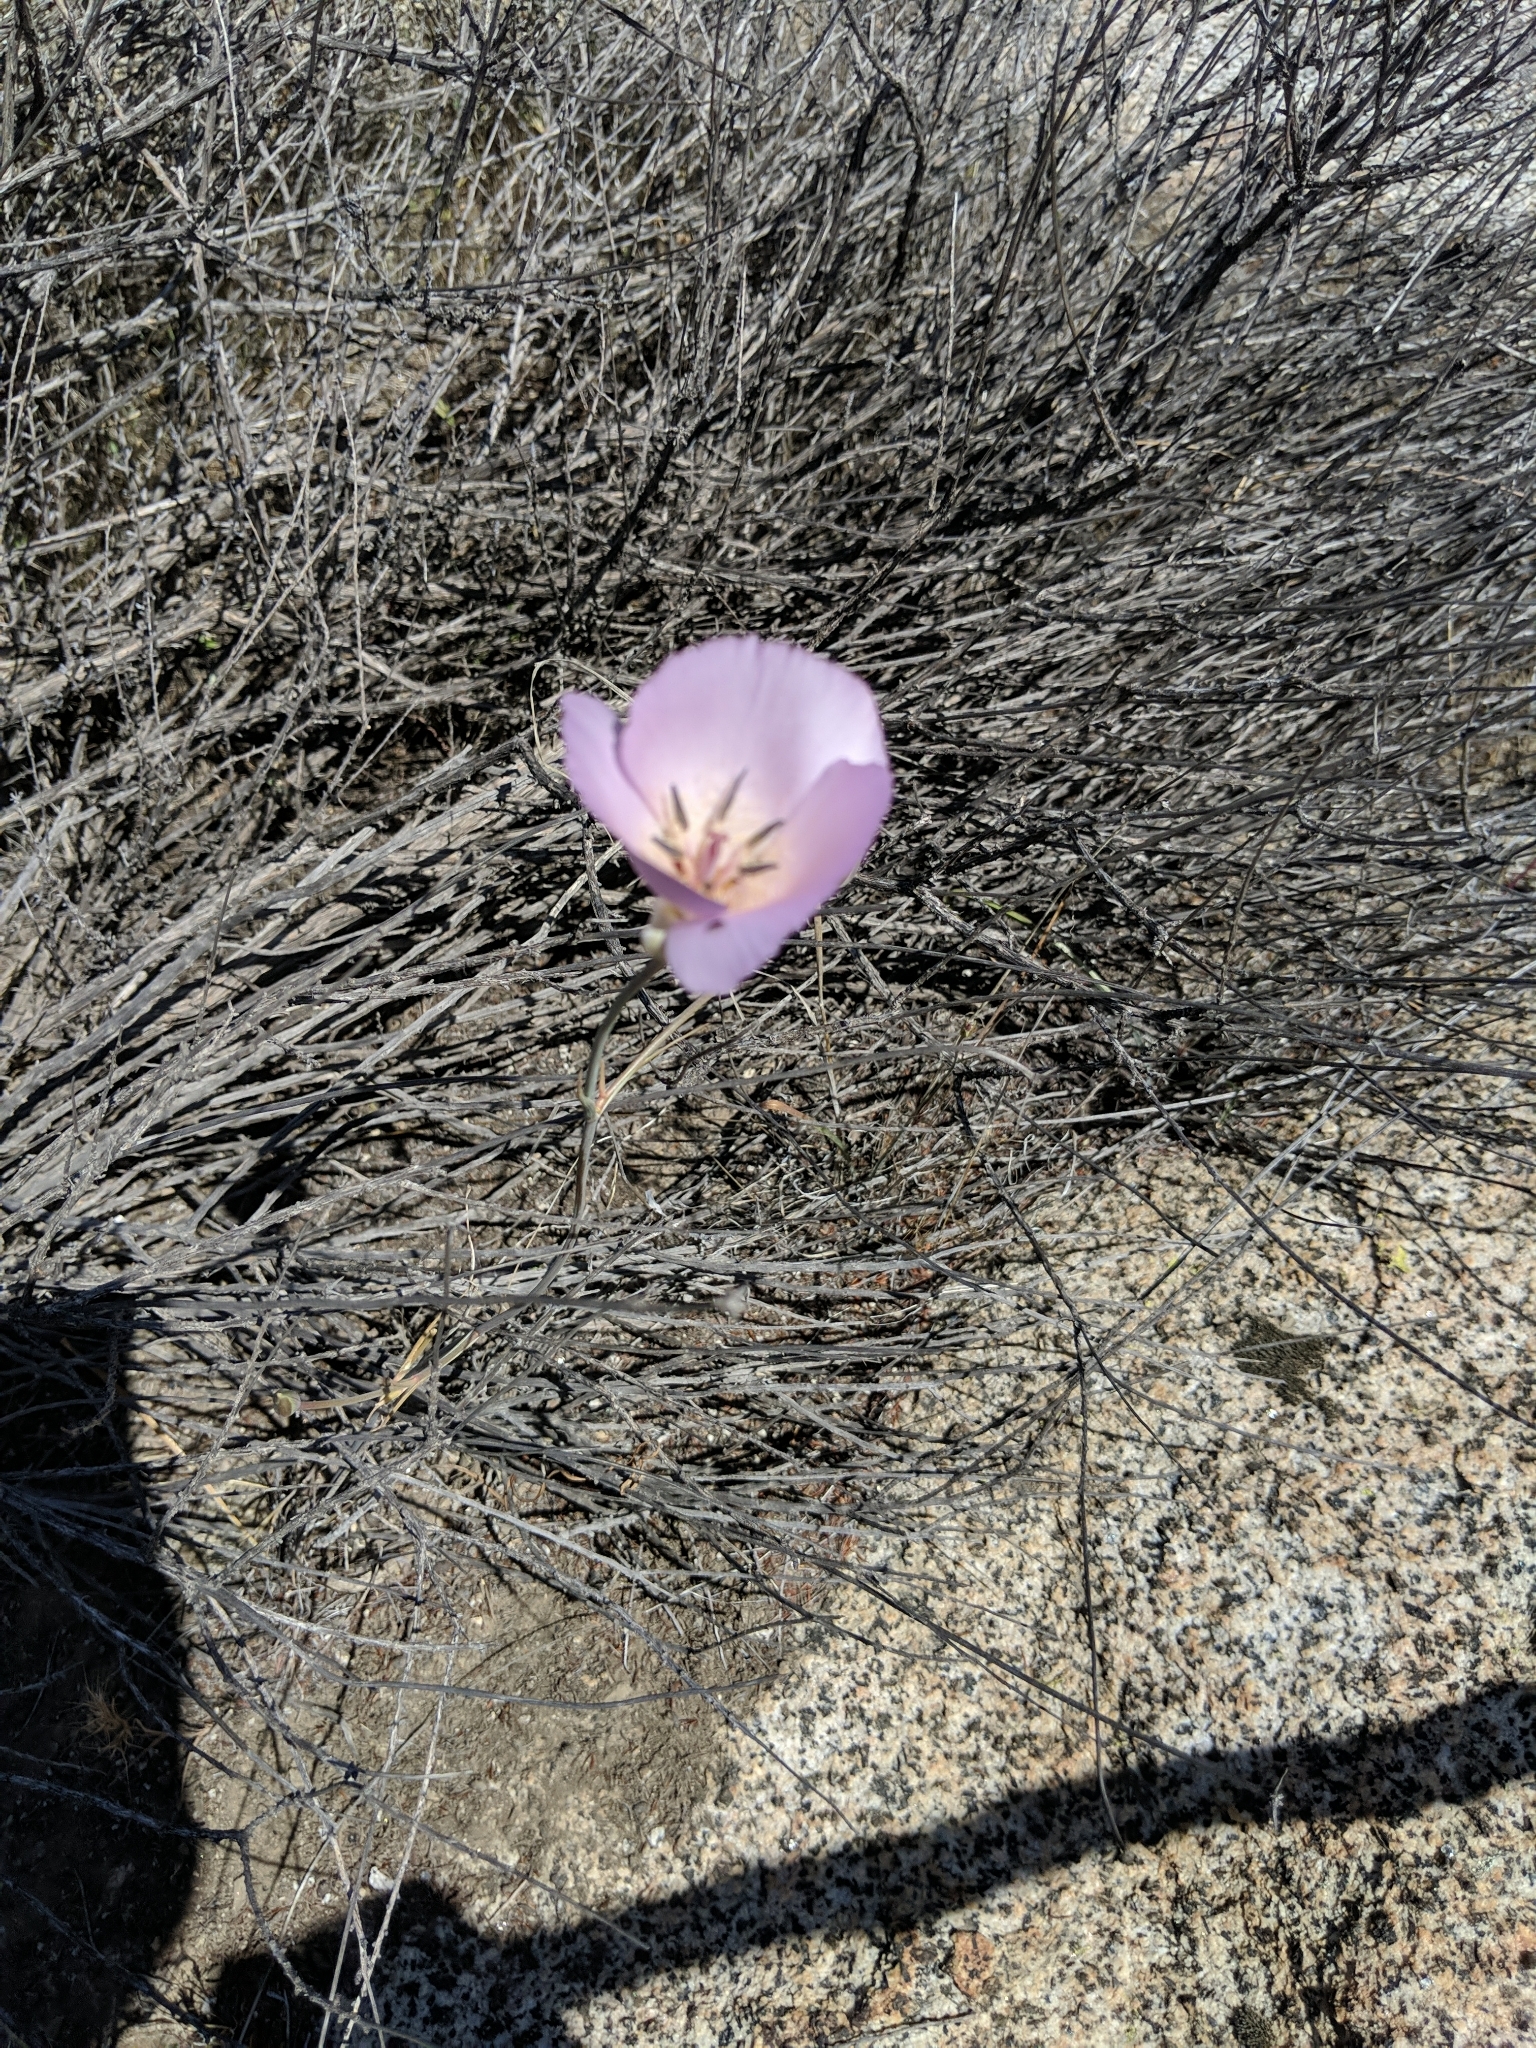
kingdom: Plantae
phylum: Tracheophyta
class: Liliopsida
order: Liliales
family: Liliaceae
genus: Calochortus
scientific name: Calochortus splendens
